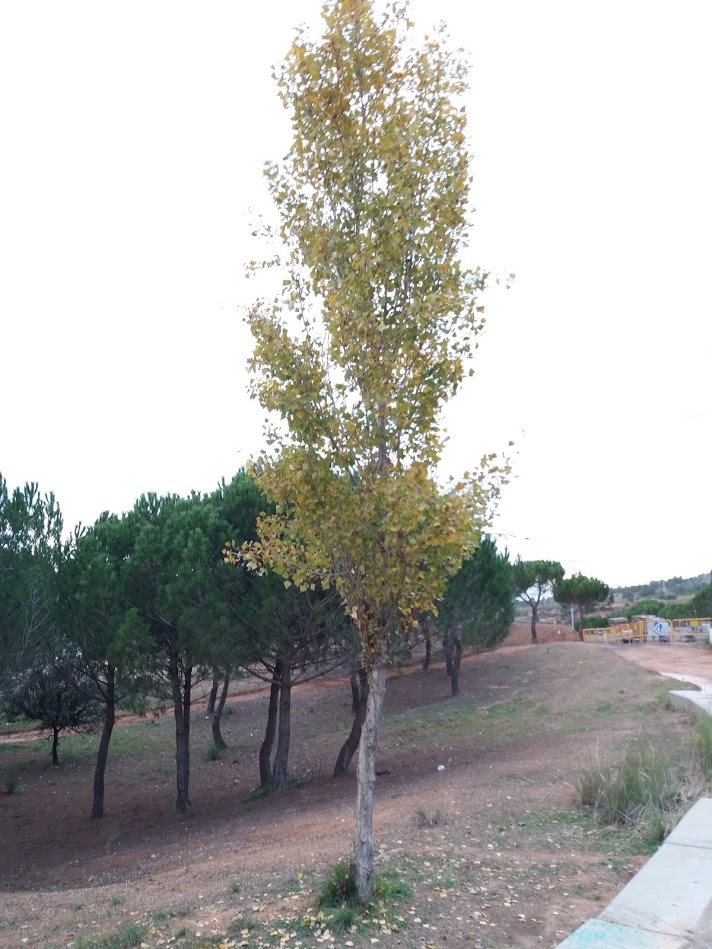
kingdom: Plantae
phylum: Tracheophyta
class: Magnoliopsida
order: Malpighiales
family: Salicaceae
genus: Populus
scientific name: Populus alba
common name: White poplar
